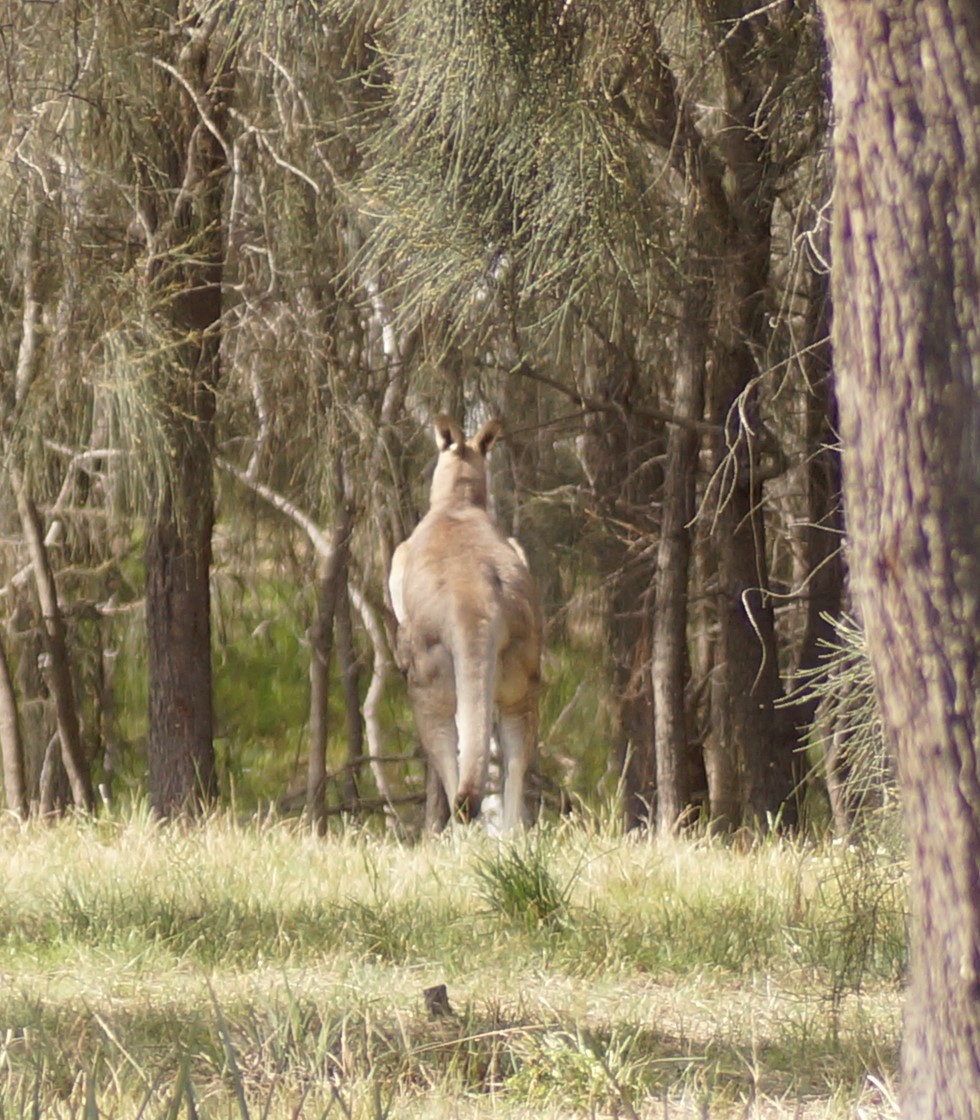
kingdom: Animalia
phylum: Chordata
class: Mammalia
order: Diprotodontia
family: Macropodidae
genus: Macropus
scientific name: Macropus giganteus
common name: Eastern grey kangaroo
